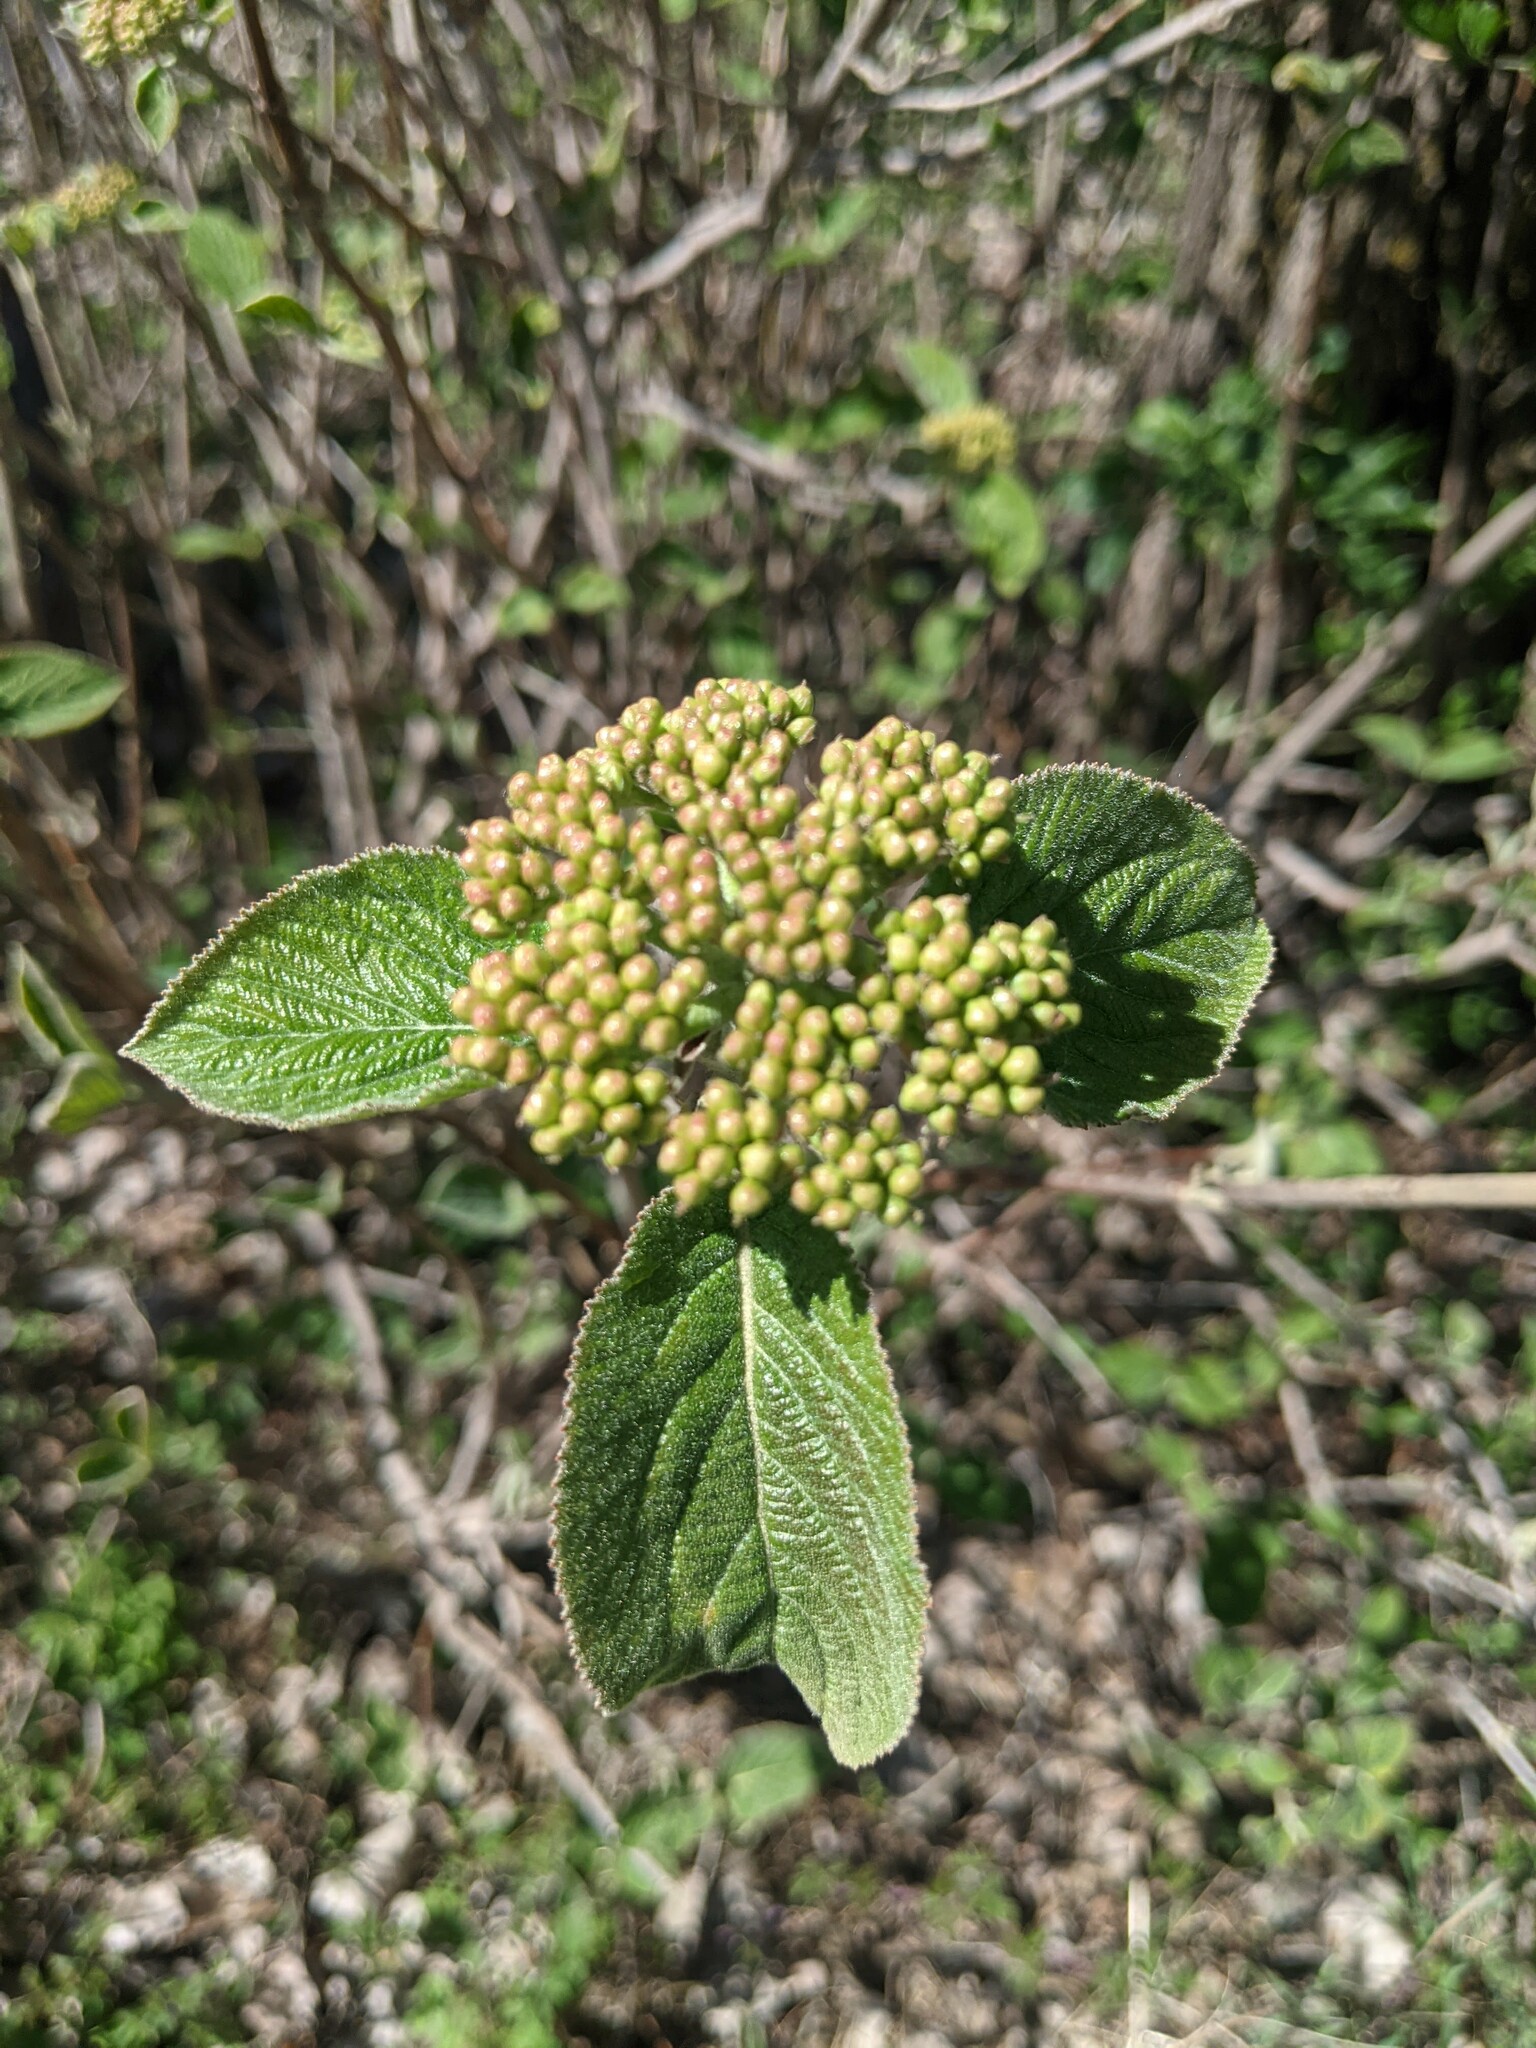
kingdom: Plantae
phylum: Tracheophyta
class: Magnoliopsida
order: Dipsacales
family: Viburnaceae
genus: Viburnum
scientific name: Viburnum lantana
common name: Wayfaring tree
